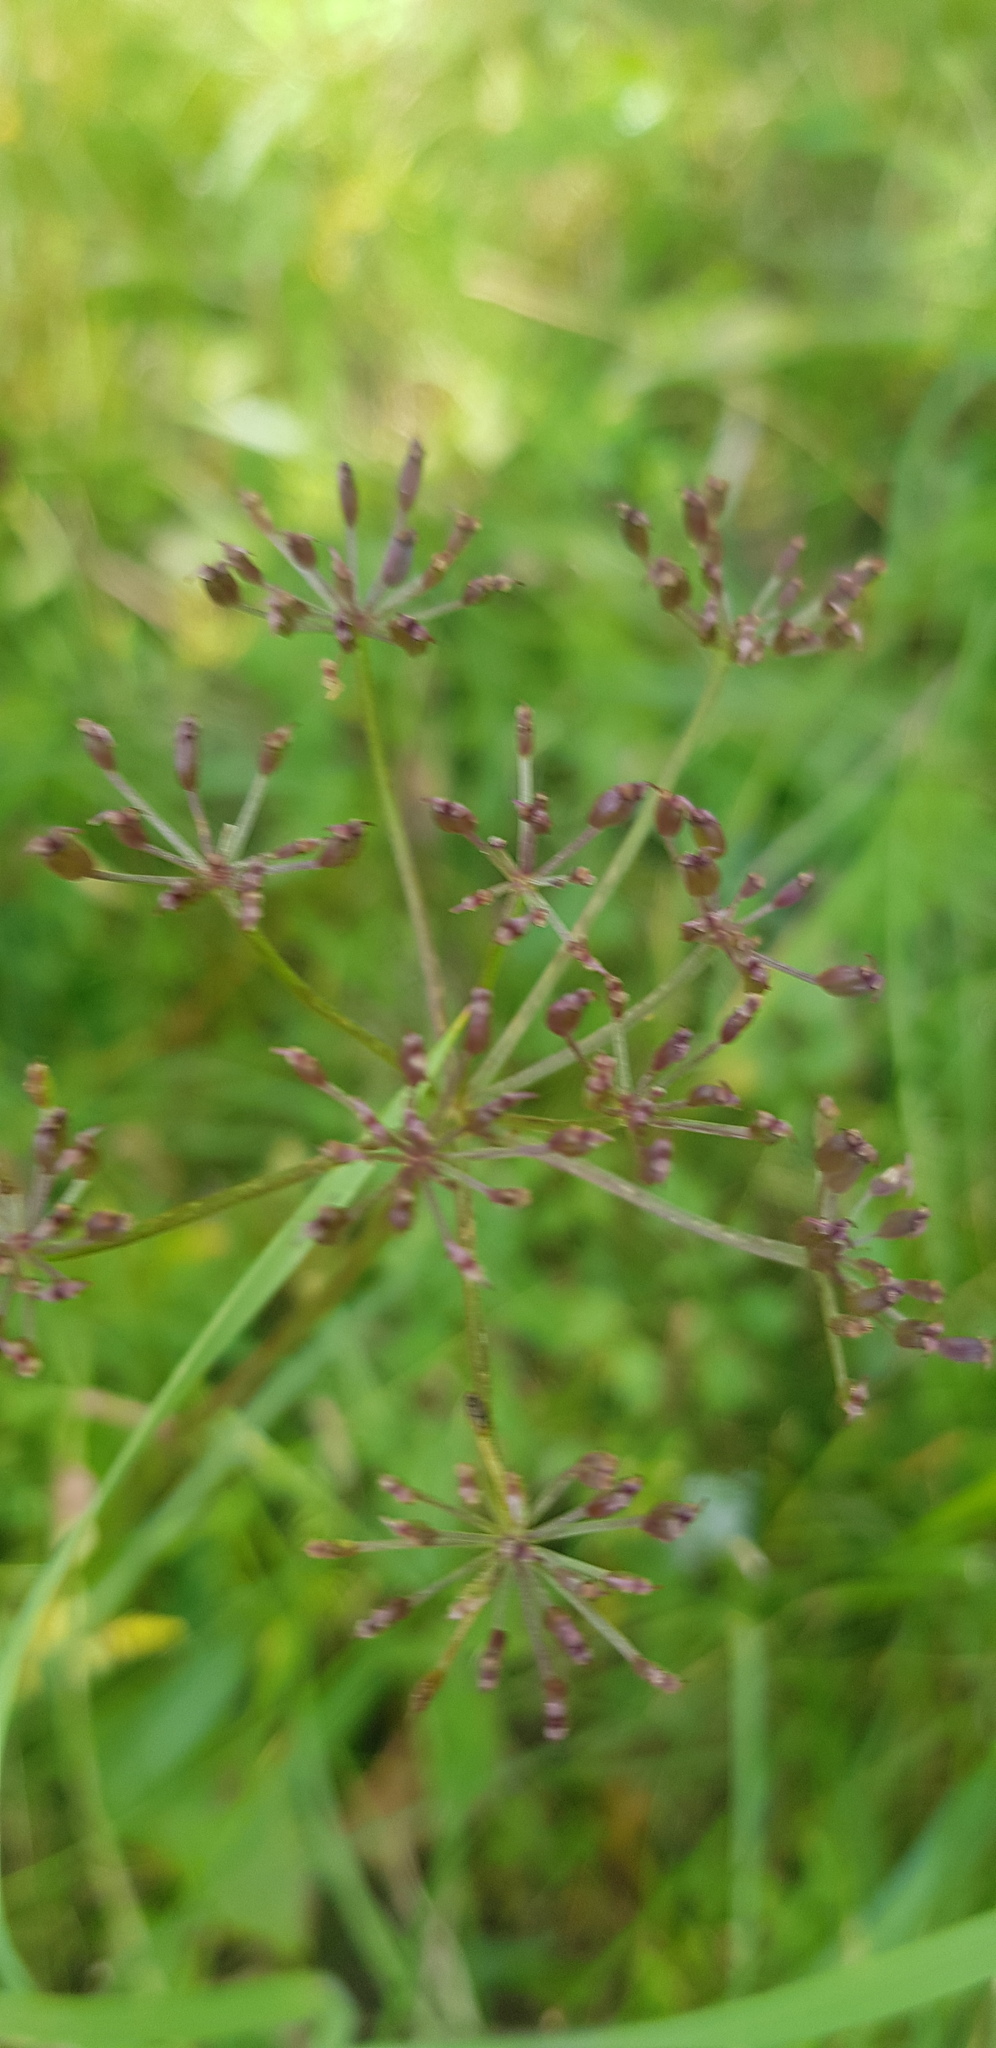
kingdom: Plantae
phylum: Tracheophyta
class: Magnoliopsida
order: Apiales
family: Apiaceae
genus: Ostericum
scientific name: Ostericum tenuifolium
